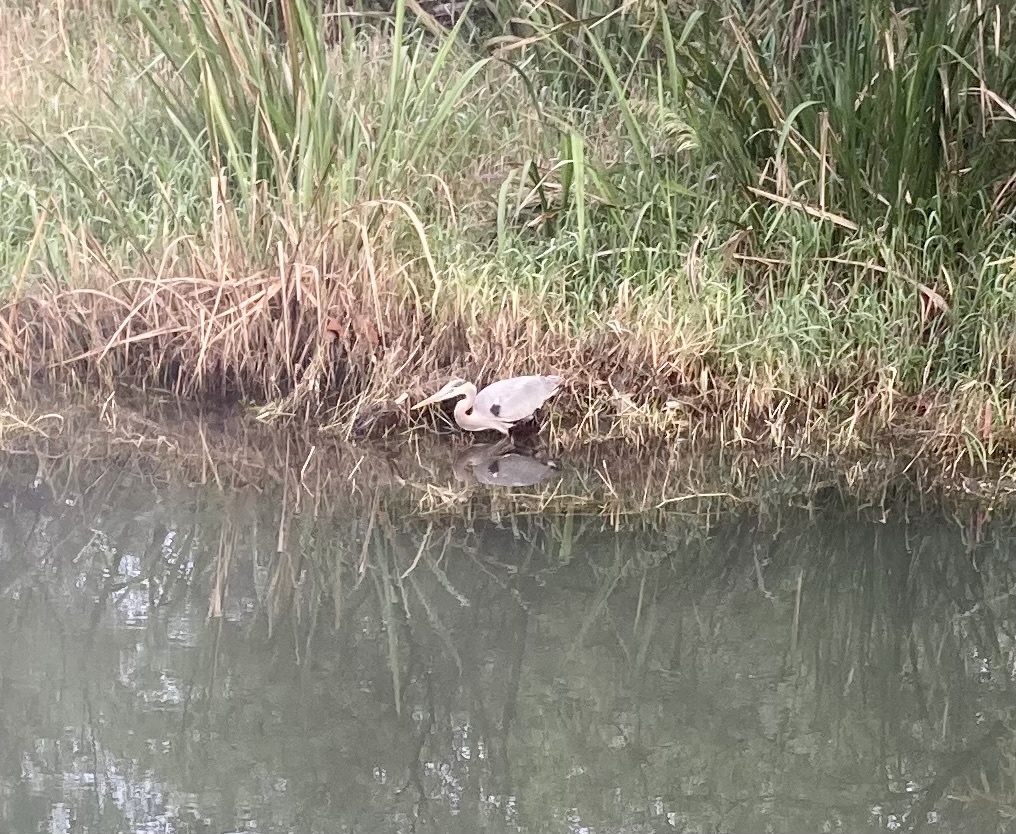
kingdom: Animalia
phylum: Chordata
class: Aves
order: Pelecaniformes
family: Ardeidae
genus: Ardea
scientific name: Ardea herodias
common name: Great blue heron
